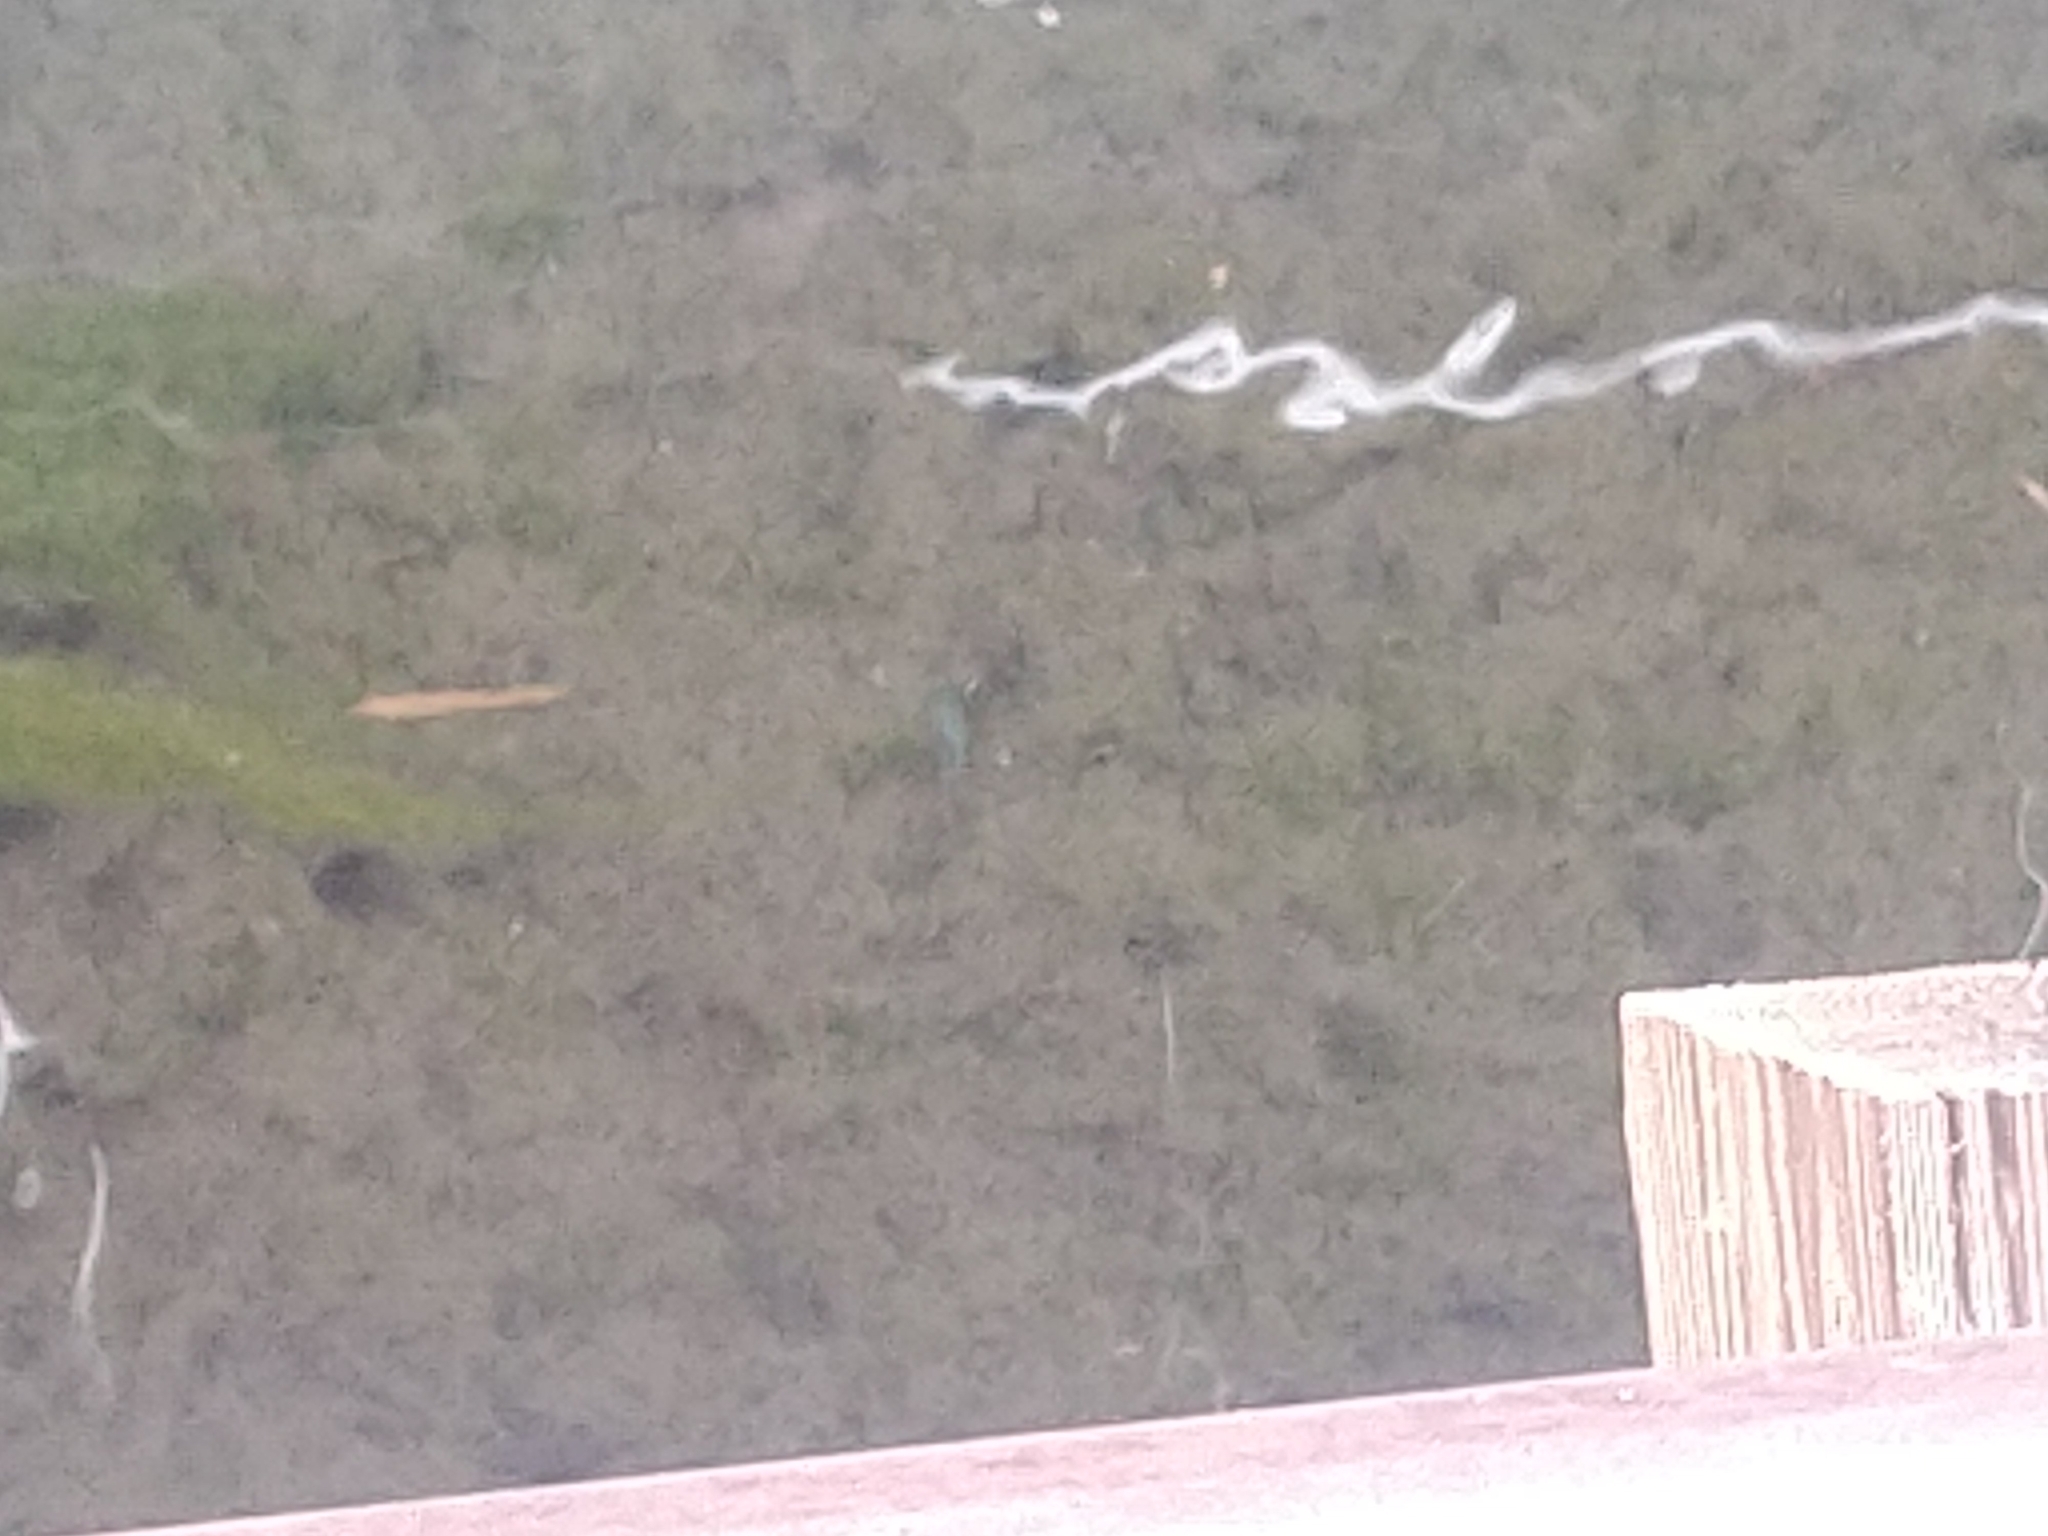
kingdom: Animalia
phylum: Chordata
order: Cyprinodontiformes
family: Cyprinodontidae
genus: Cyprinodon
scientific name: Cyprinodon nevadensis
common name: Amargosa pupfish
